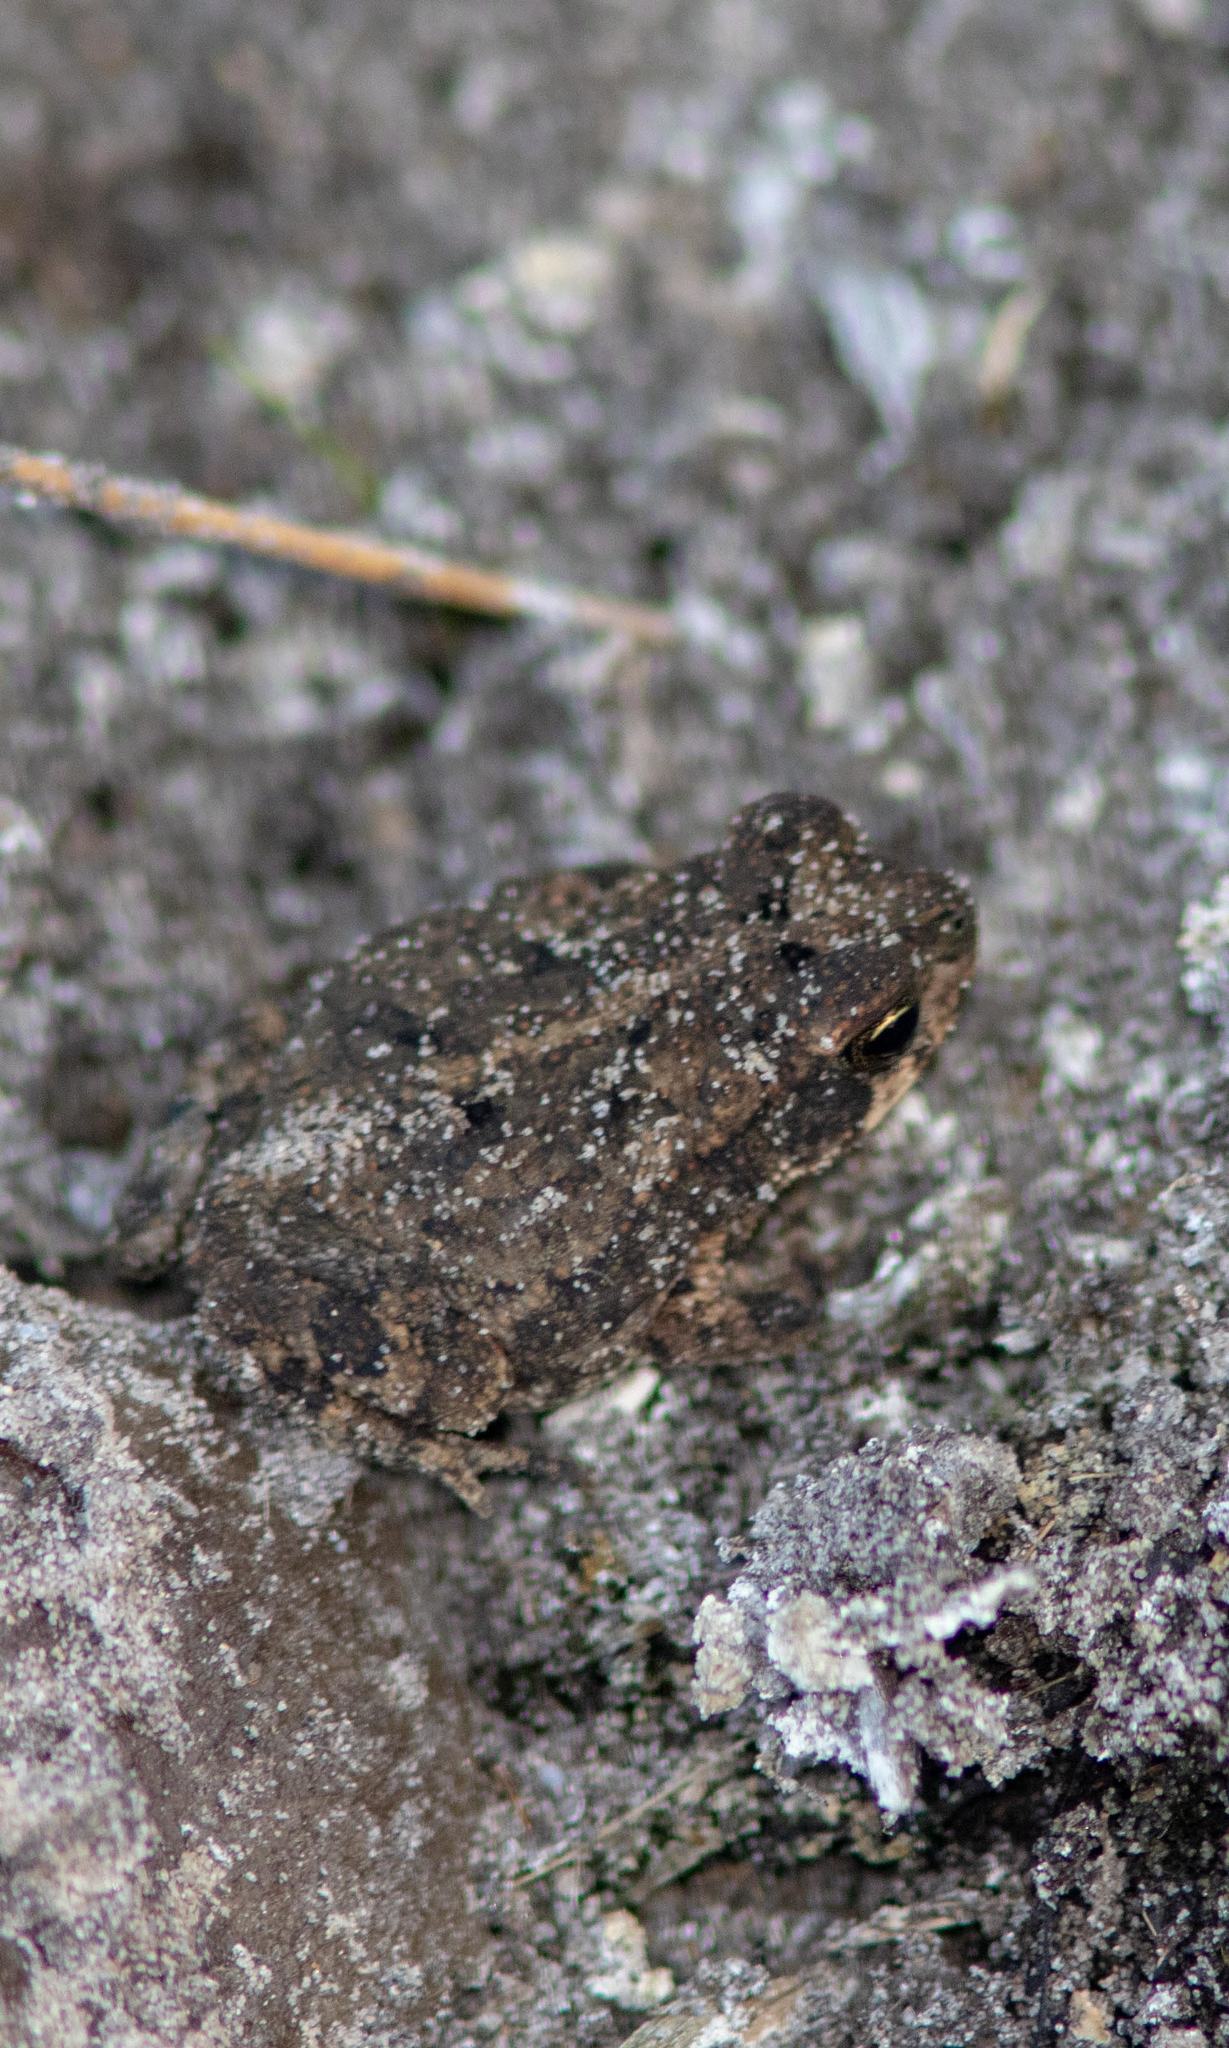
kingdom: Animalia
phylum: Chordata
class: Amphibia
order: Anura
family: Bufonidae
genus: Incilius
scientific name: Incilius nebulifer
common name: Gulf coast toad
